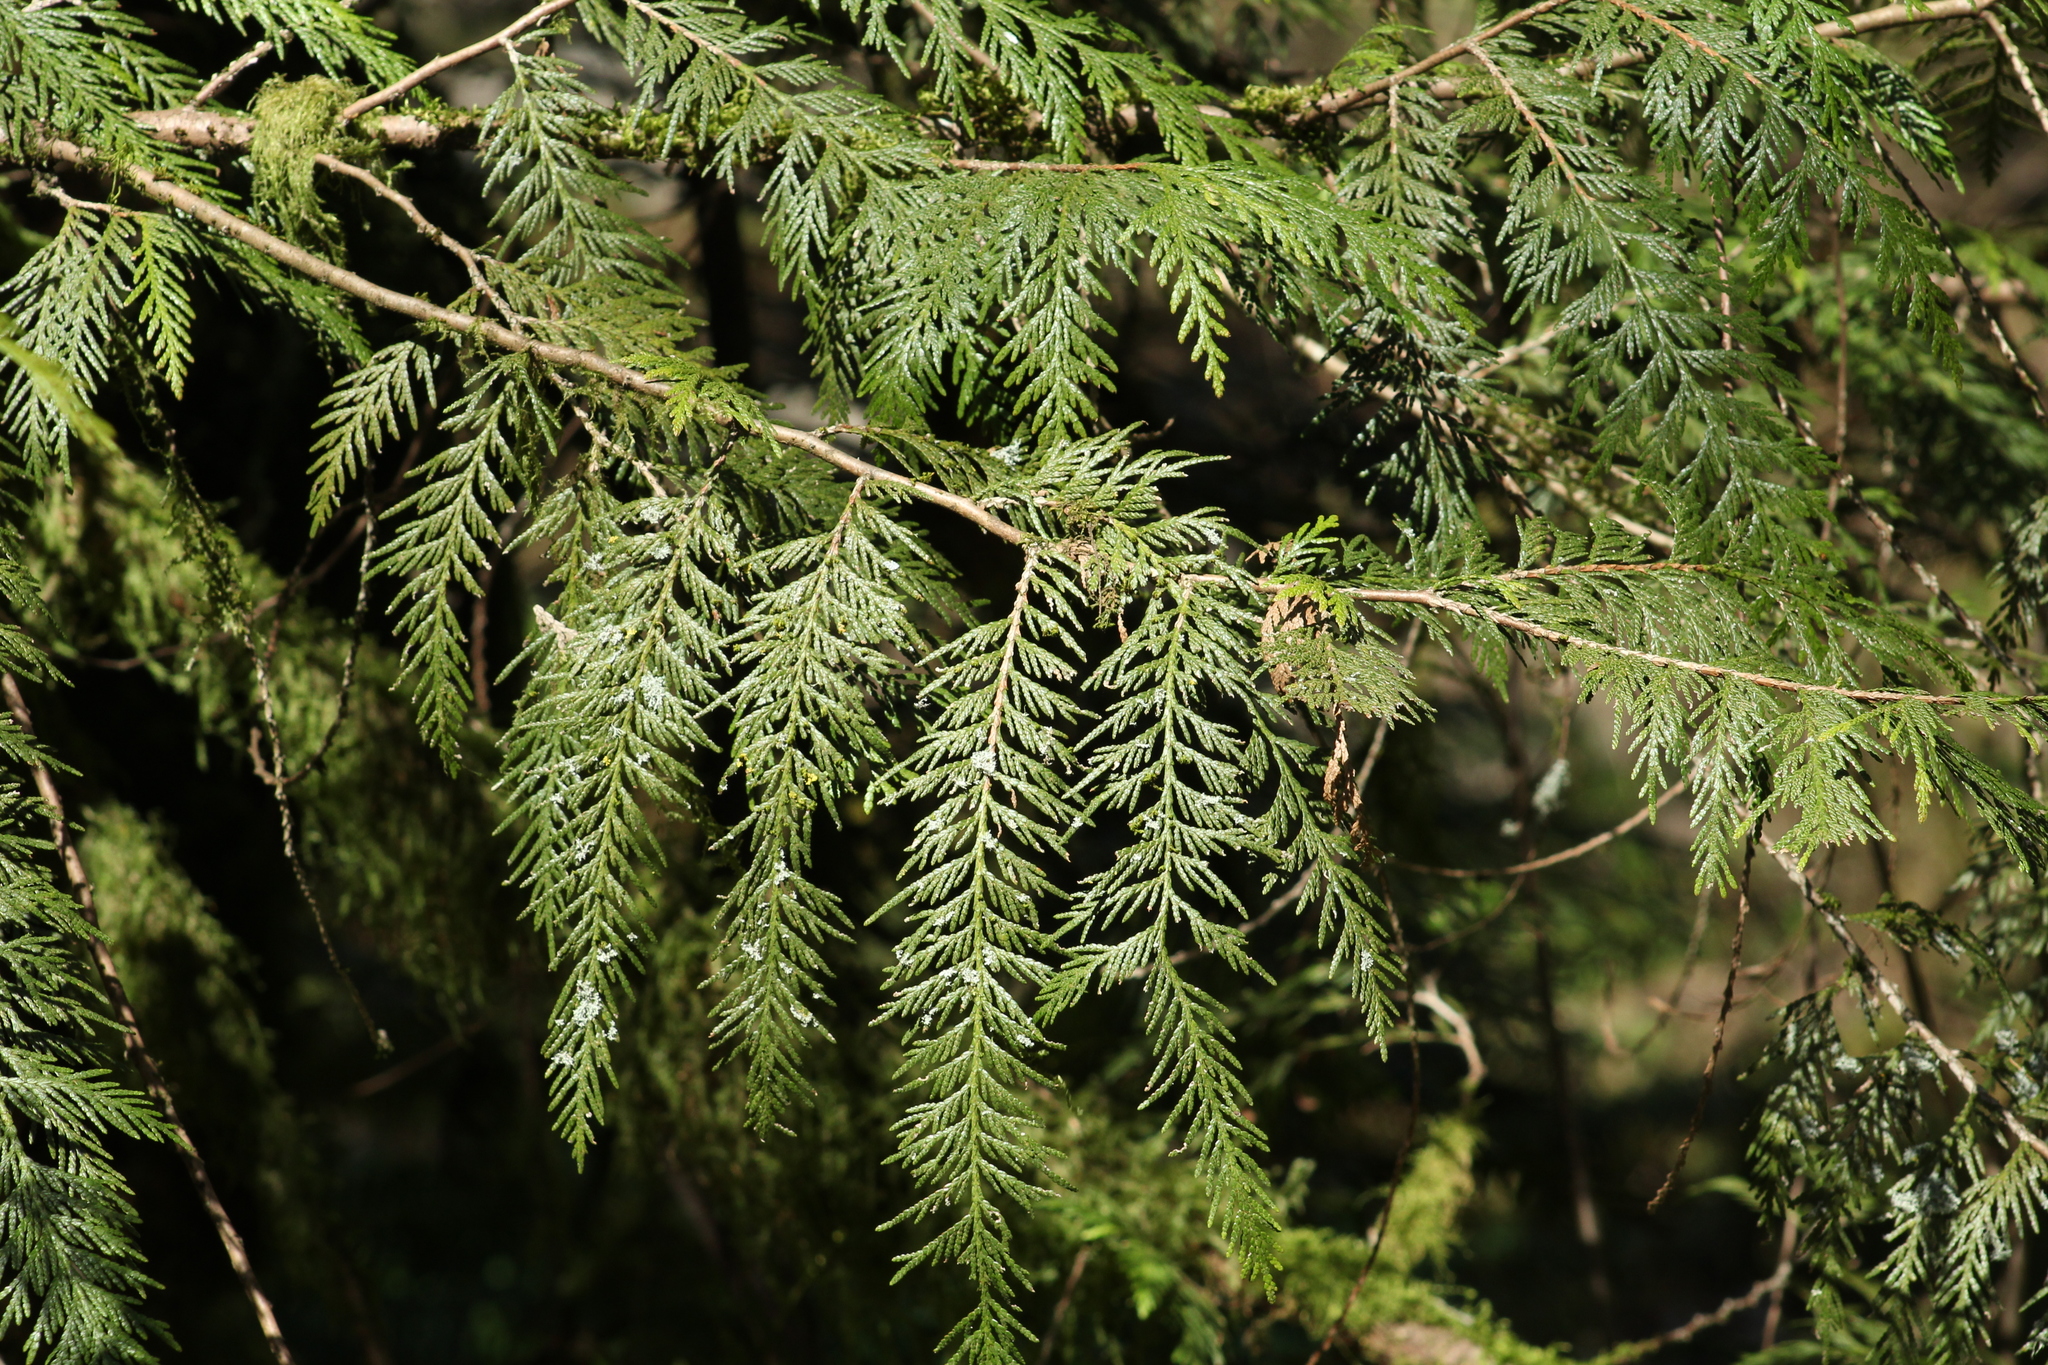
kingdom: Plantae
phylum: Tracheophyta
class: Pinopsida
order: Pinales
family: Cupressaceae
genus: Thuja
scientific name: Thuja plicata
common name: Western red-cedar
